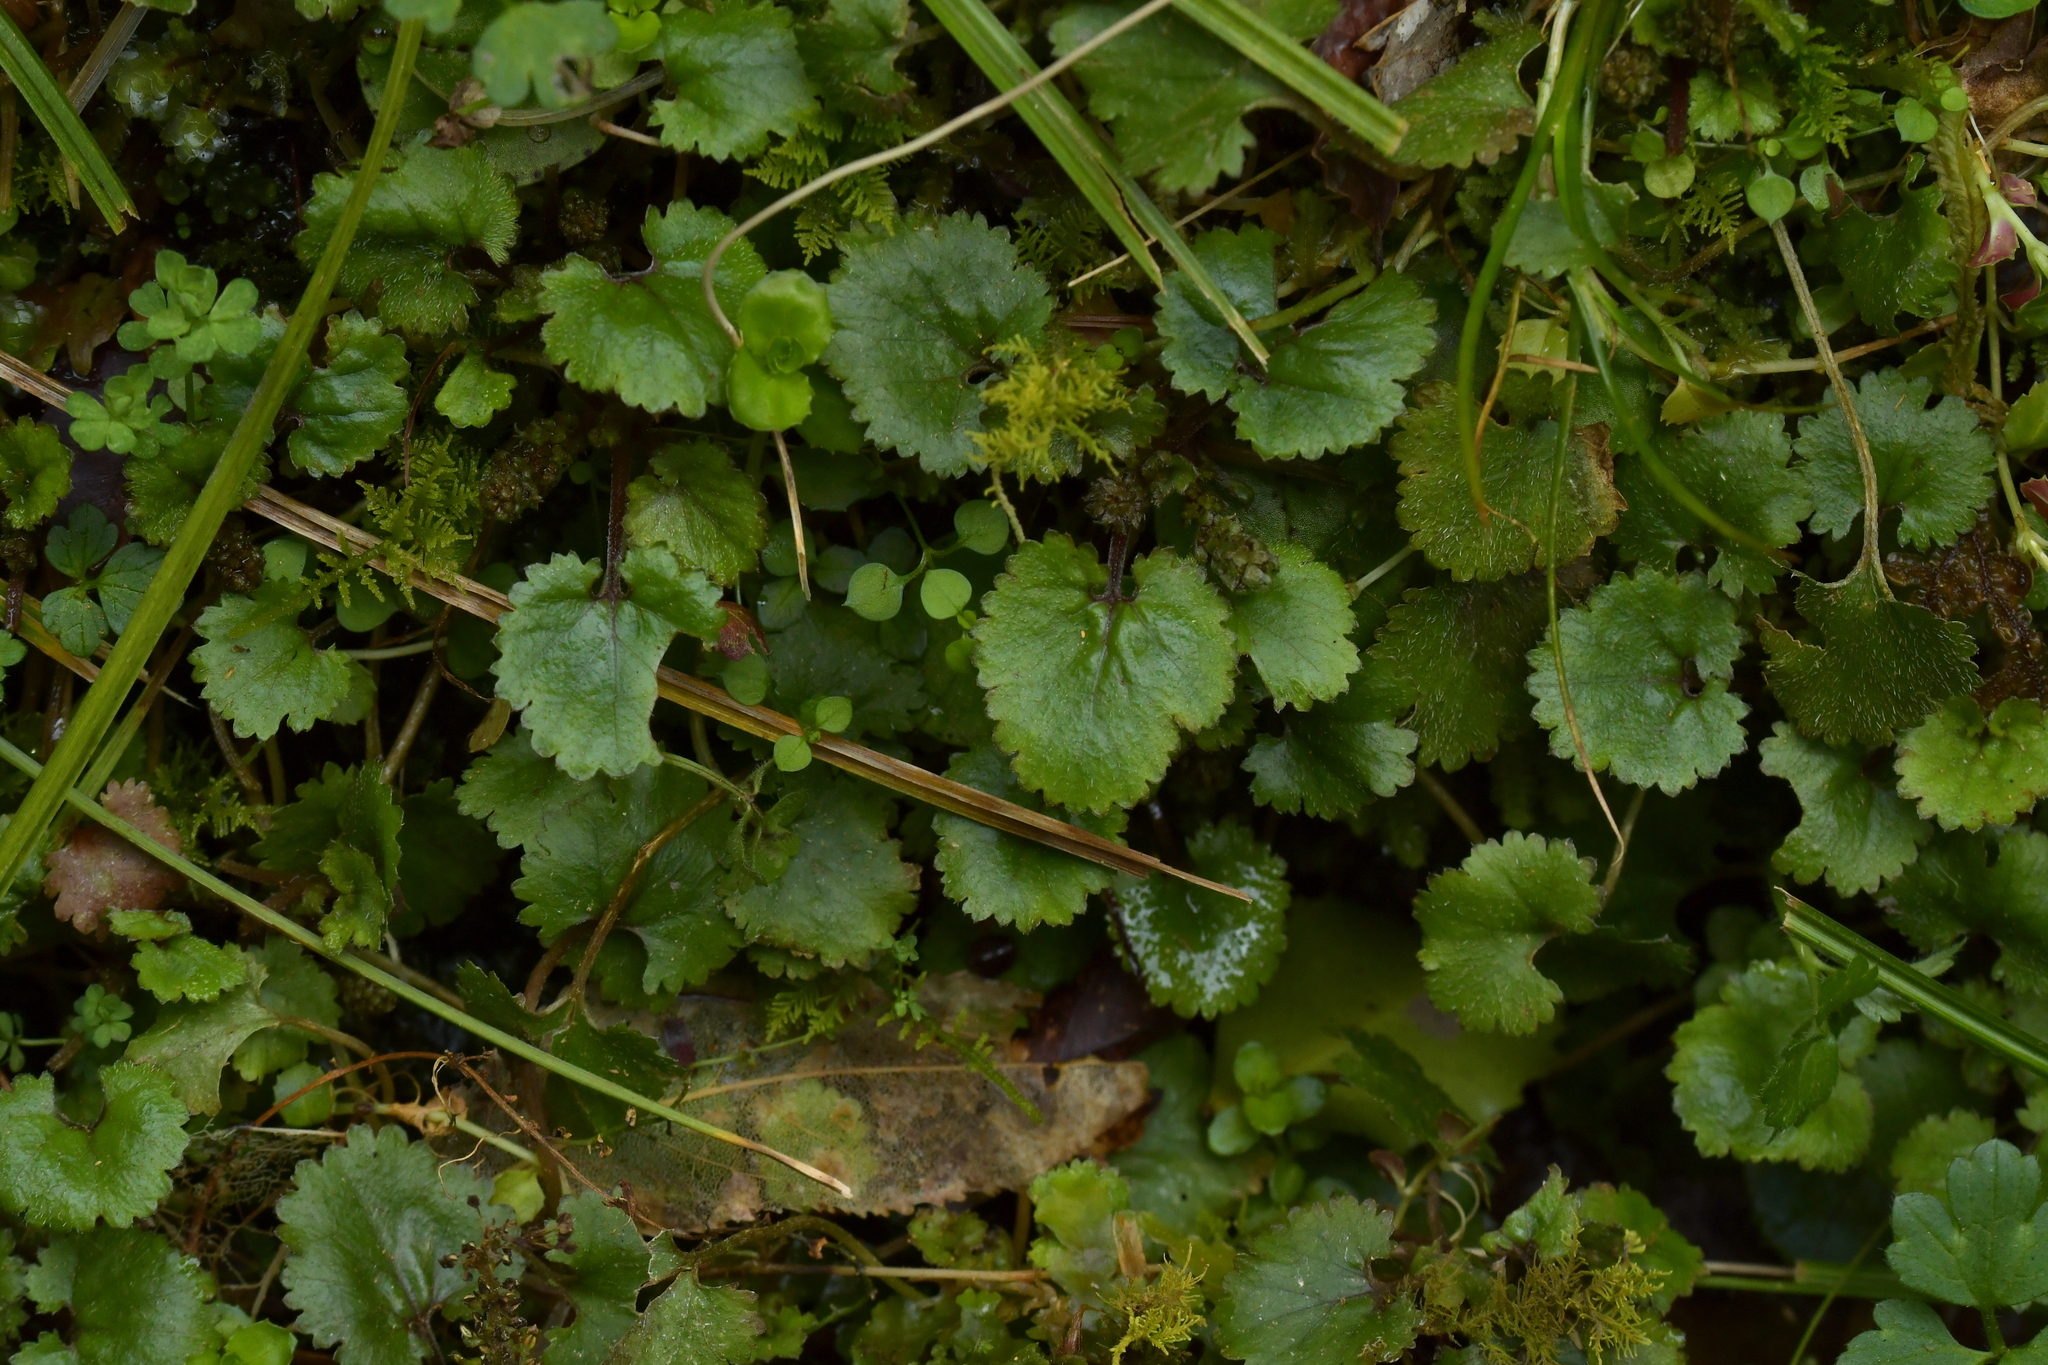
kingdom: Plantae
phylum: Tracheophyta
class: Magnoliopsida
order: Gunnerales
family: Gunneraceae
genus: Gunnera
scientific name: Gunnera monoica
